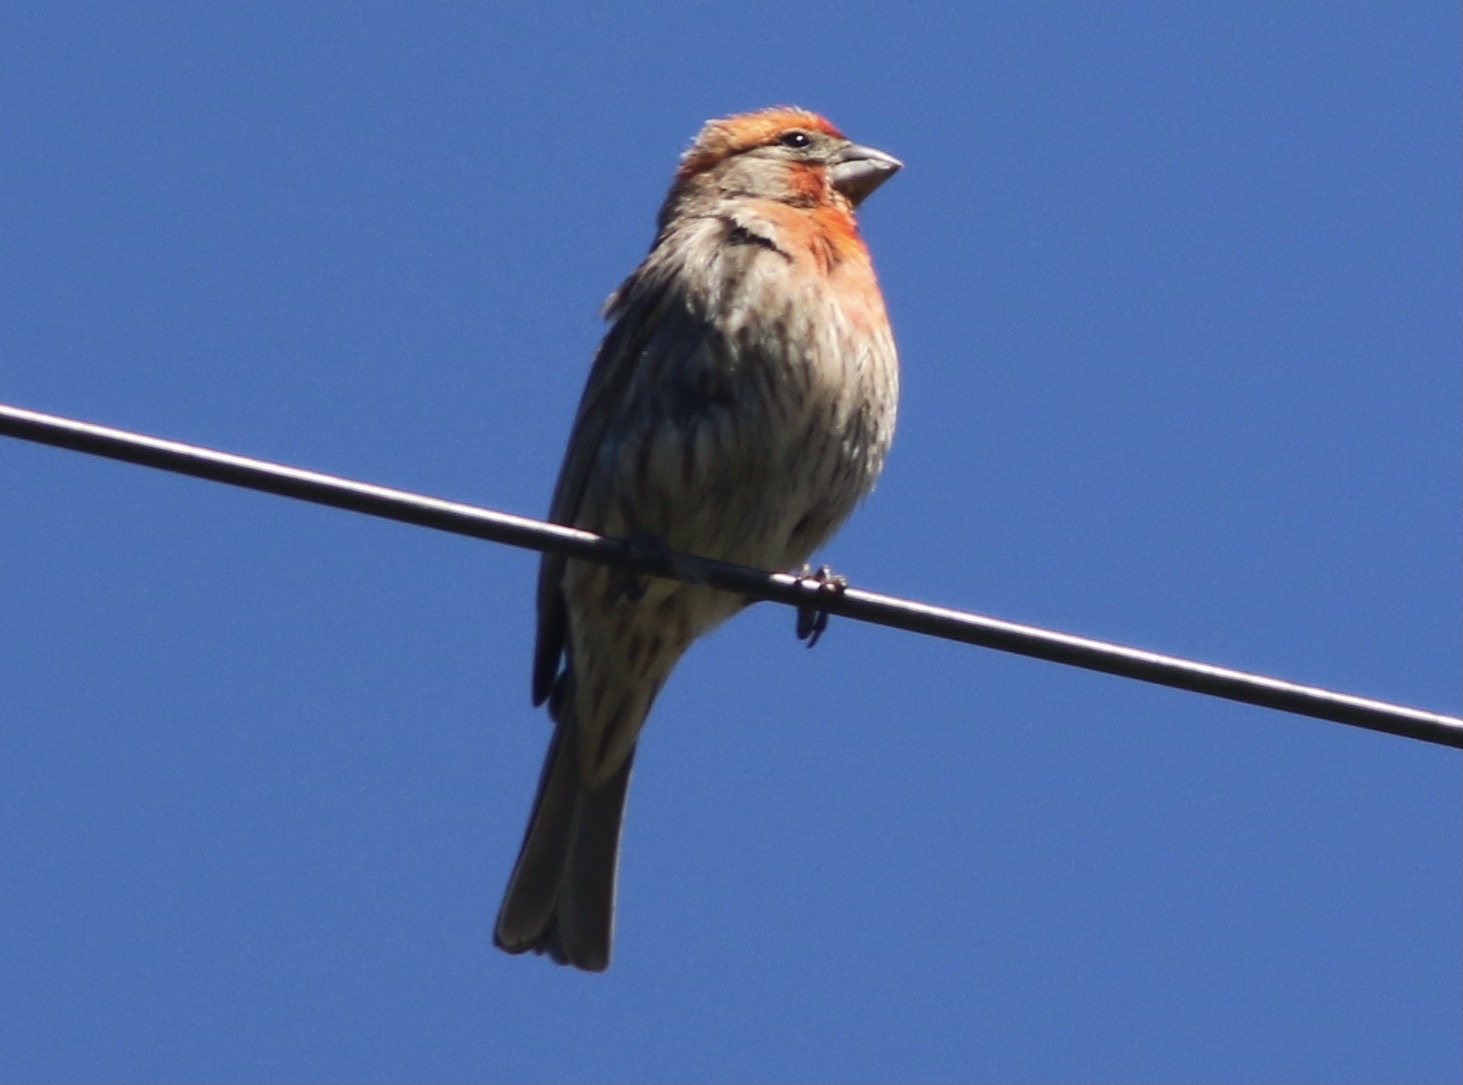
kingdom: Animalia
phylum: Chordata
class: Aves
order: Passeriformes
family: Fringillidae
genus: Haemorhous
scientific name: Haemorhous mexicanus
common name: House finch
